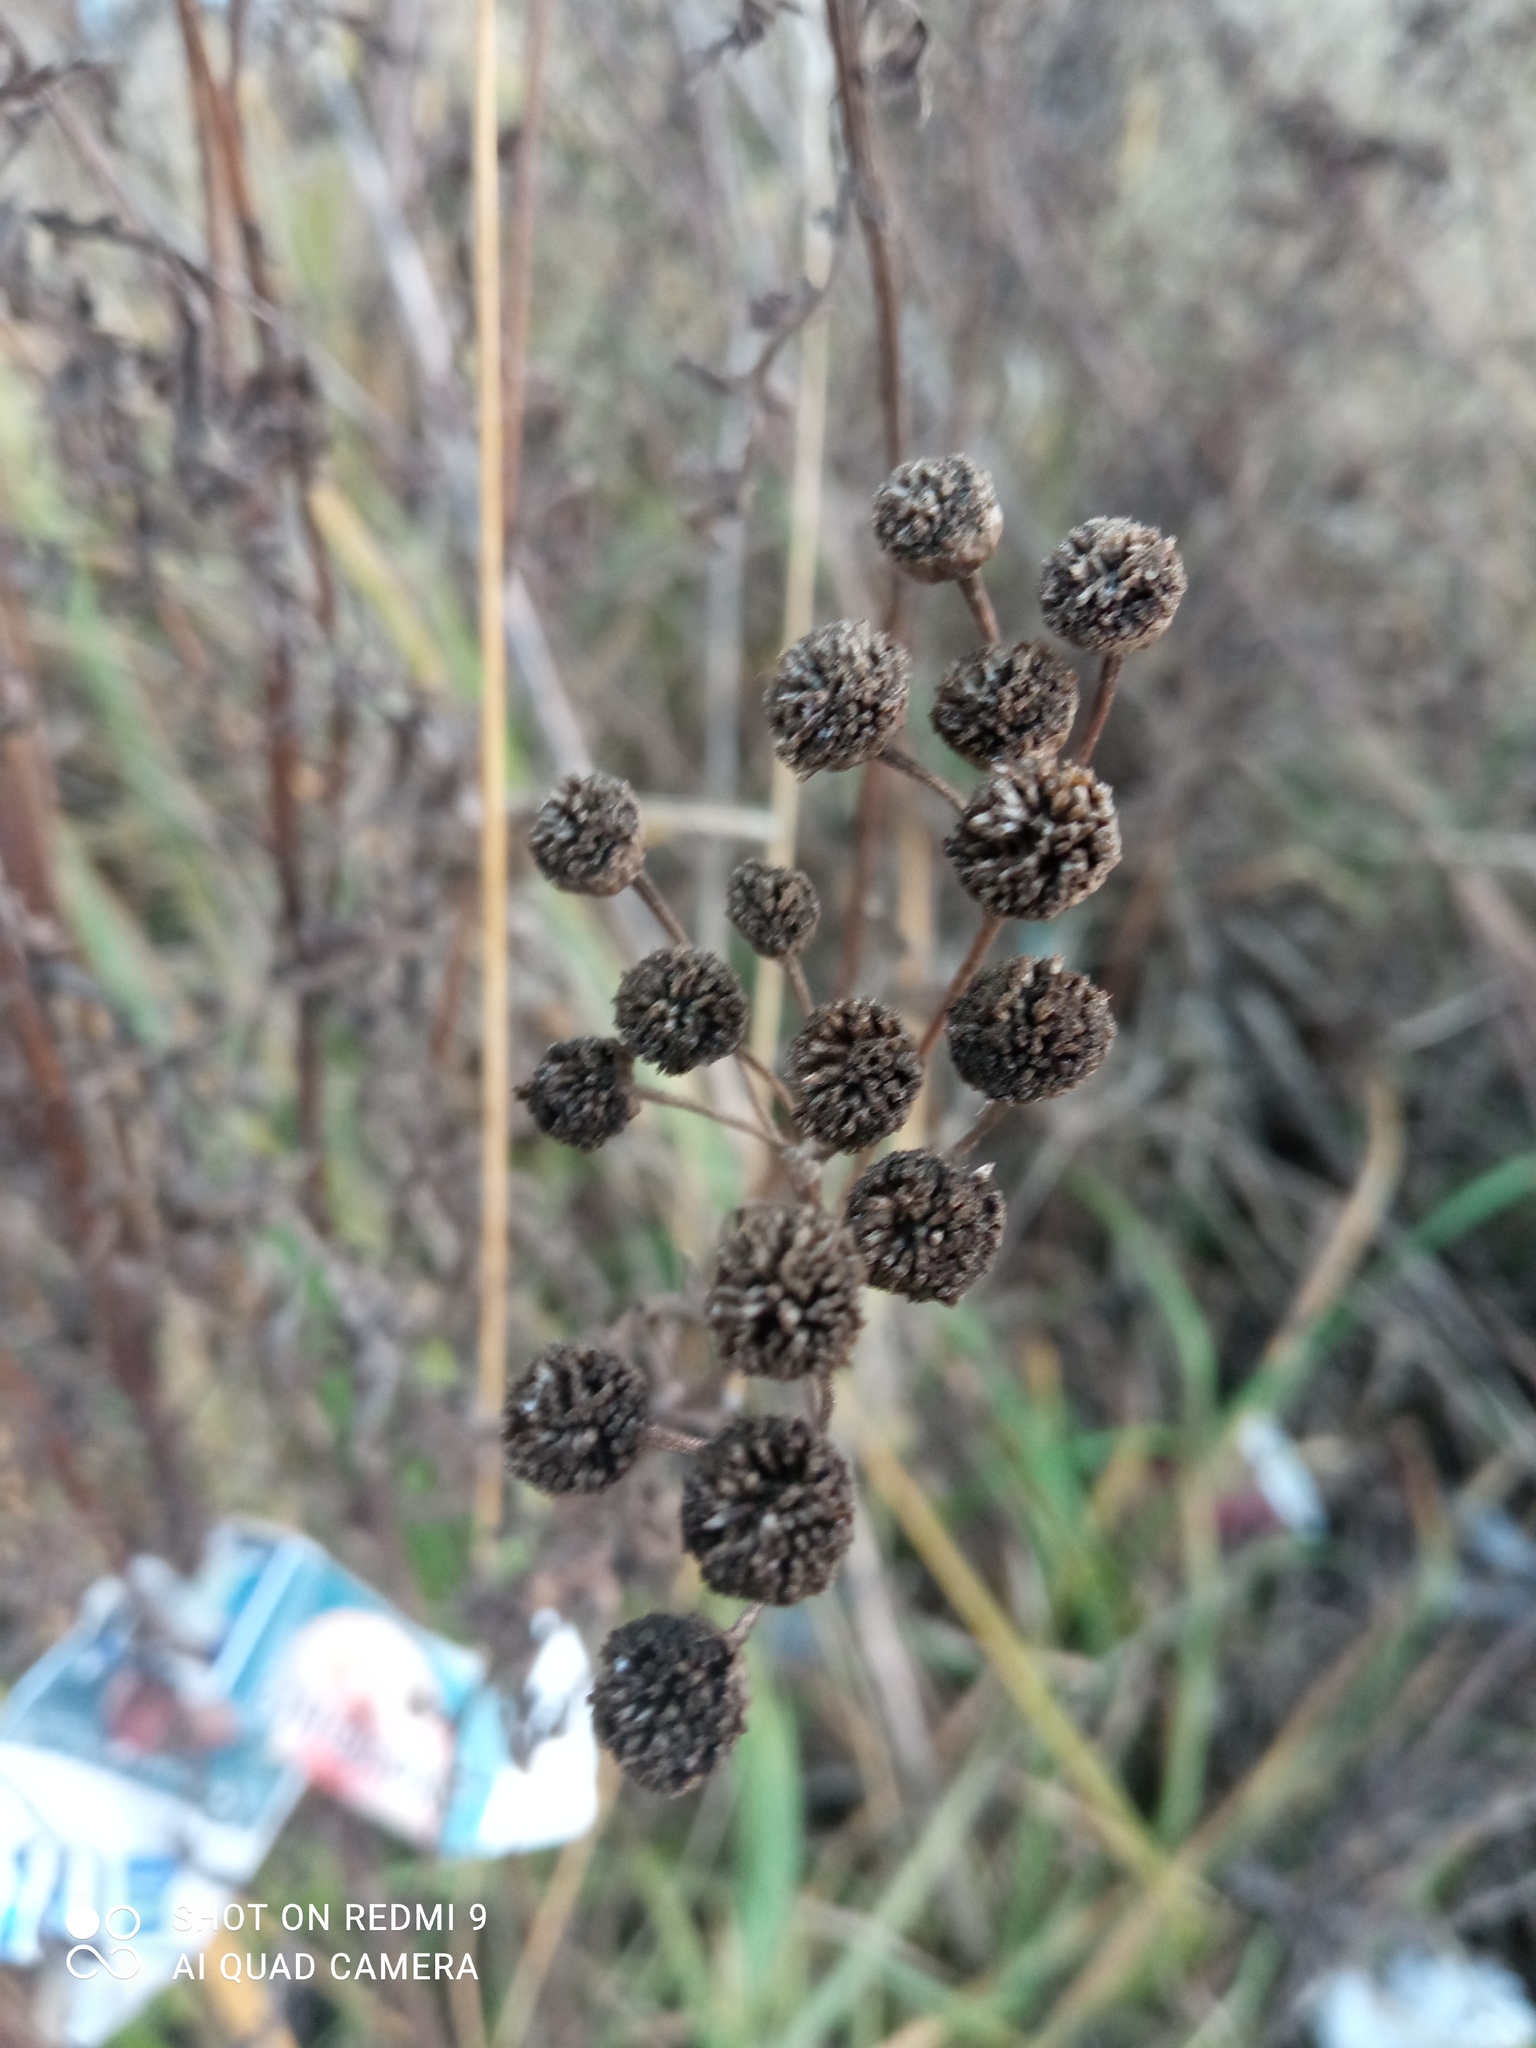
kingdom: Plantae
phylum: Tracheophyta
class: Magnoliopsida
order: Asterales
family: Asteraceae
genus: Tanacetum
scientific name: Tanacetum vulgare
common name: Common tansy
